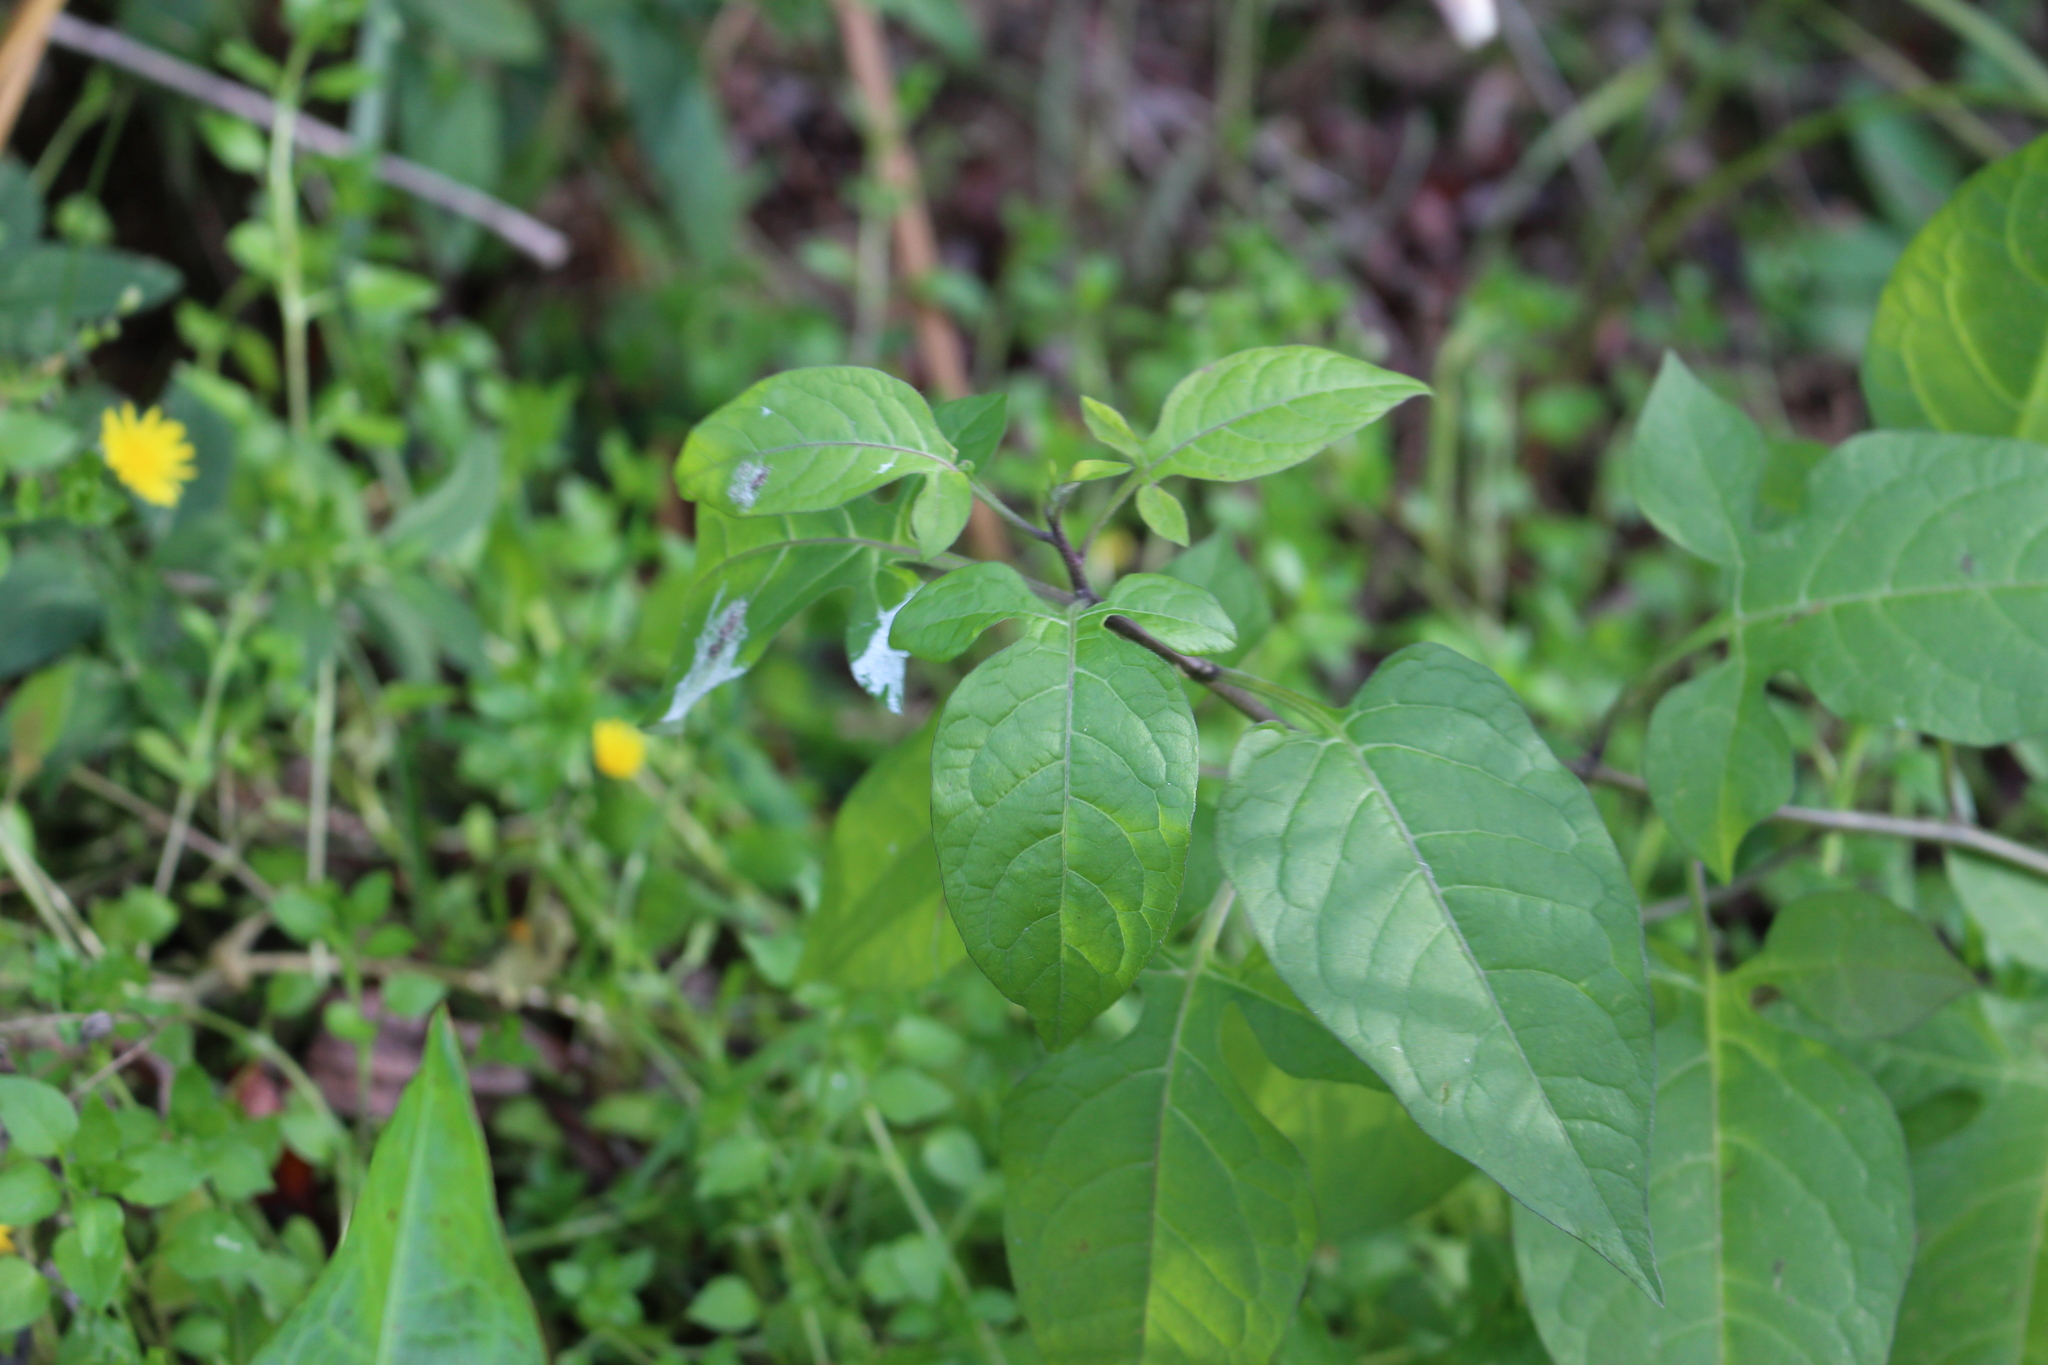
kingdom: Plantae
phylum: Tracheophyta
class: Magnoliopsida
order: Solanales
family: Solanaceae
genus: Solanum
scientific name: Solanum dulcamara
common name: Climbing nightshade
